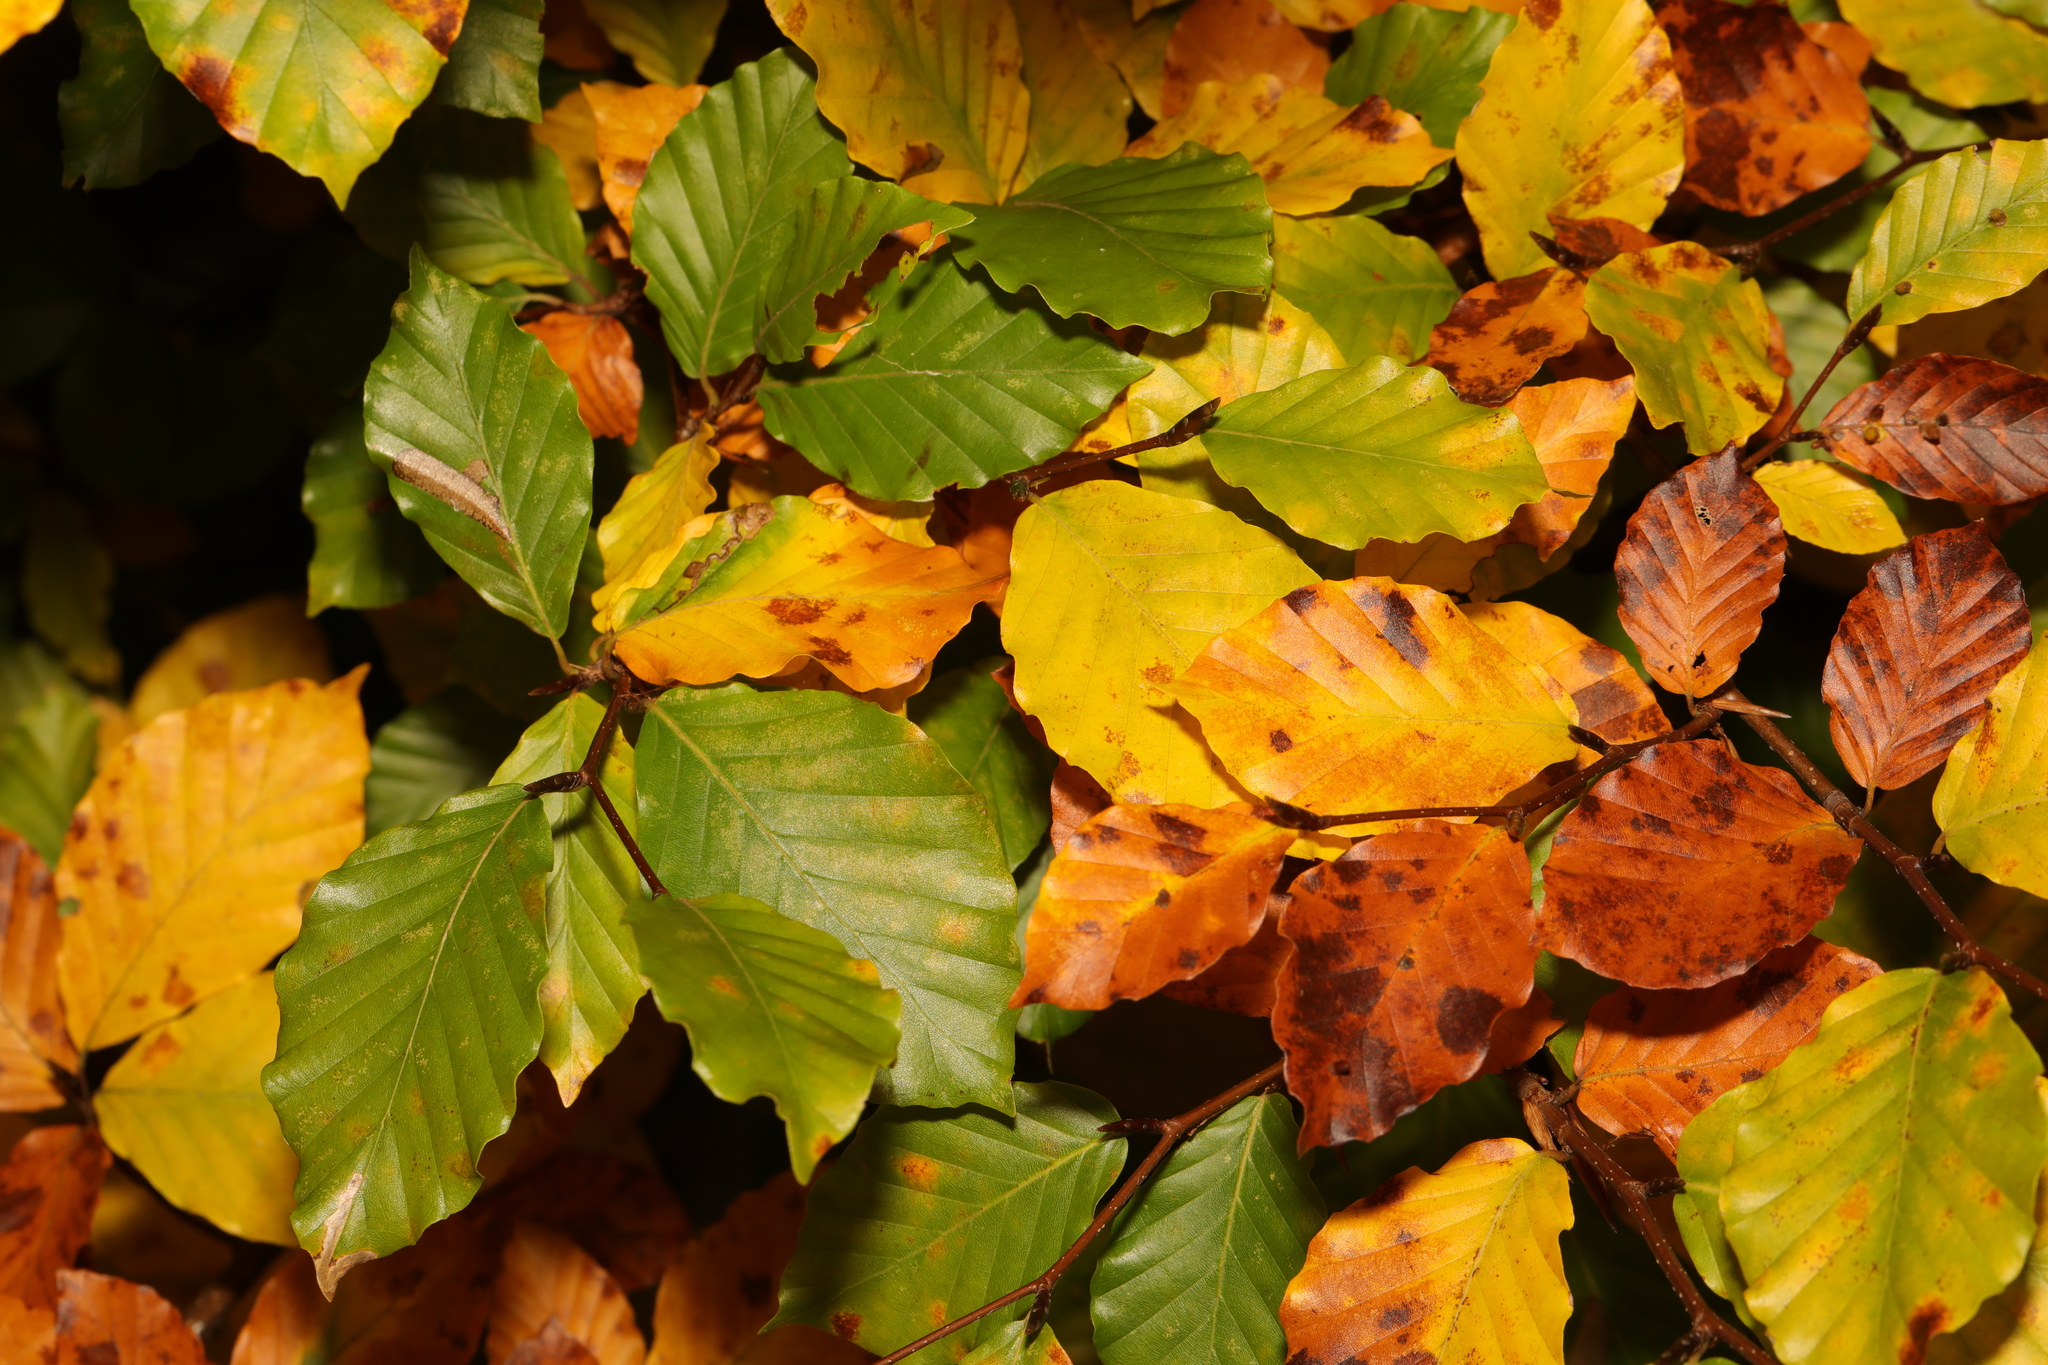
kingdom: Plantae
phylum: Tracheophyta
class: Magnoliopsida
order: Fagales
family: Fagaceae
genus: Fagus
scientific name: Fagus sylvatica
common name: Beech
